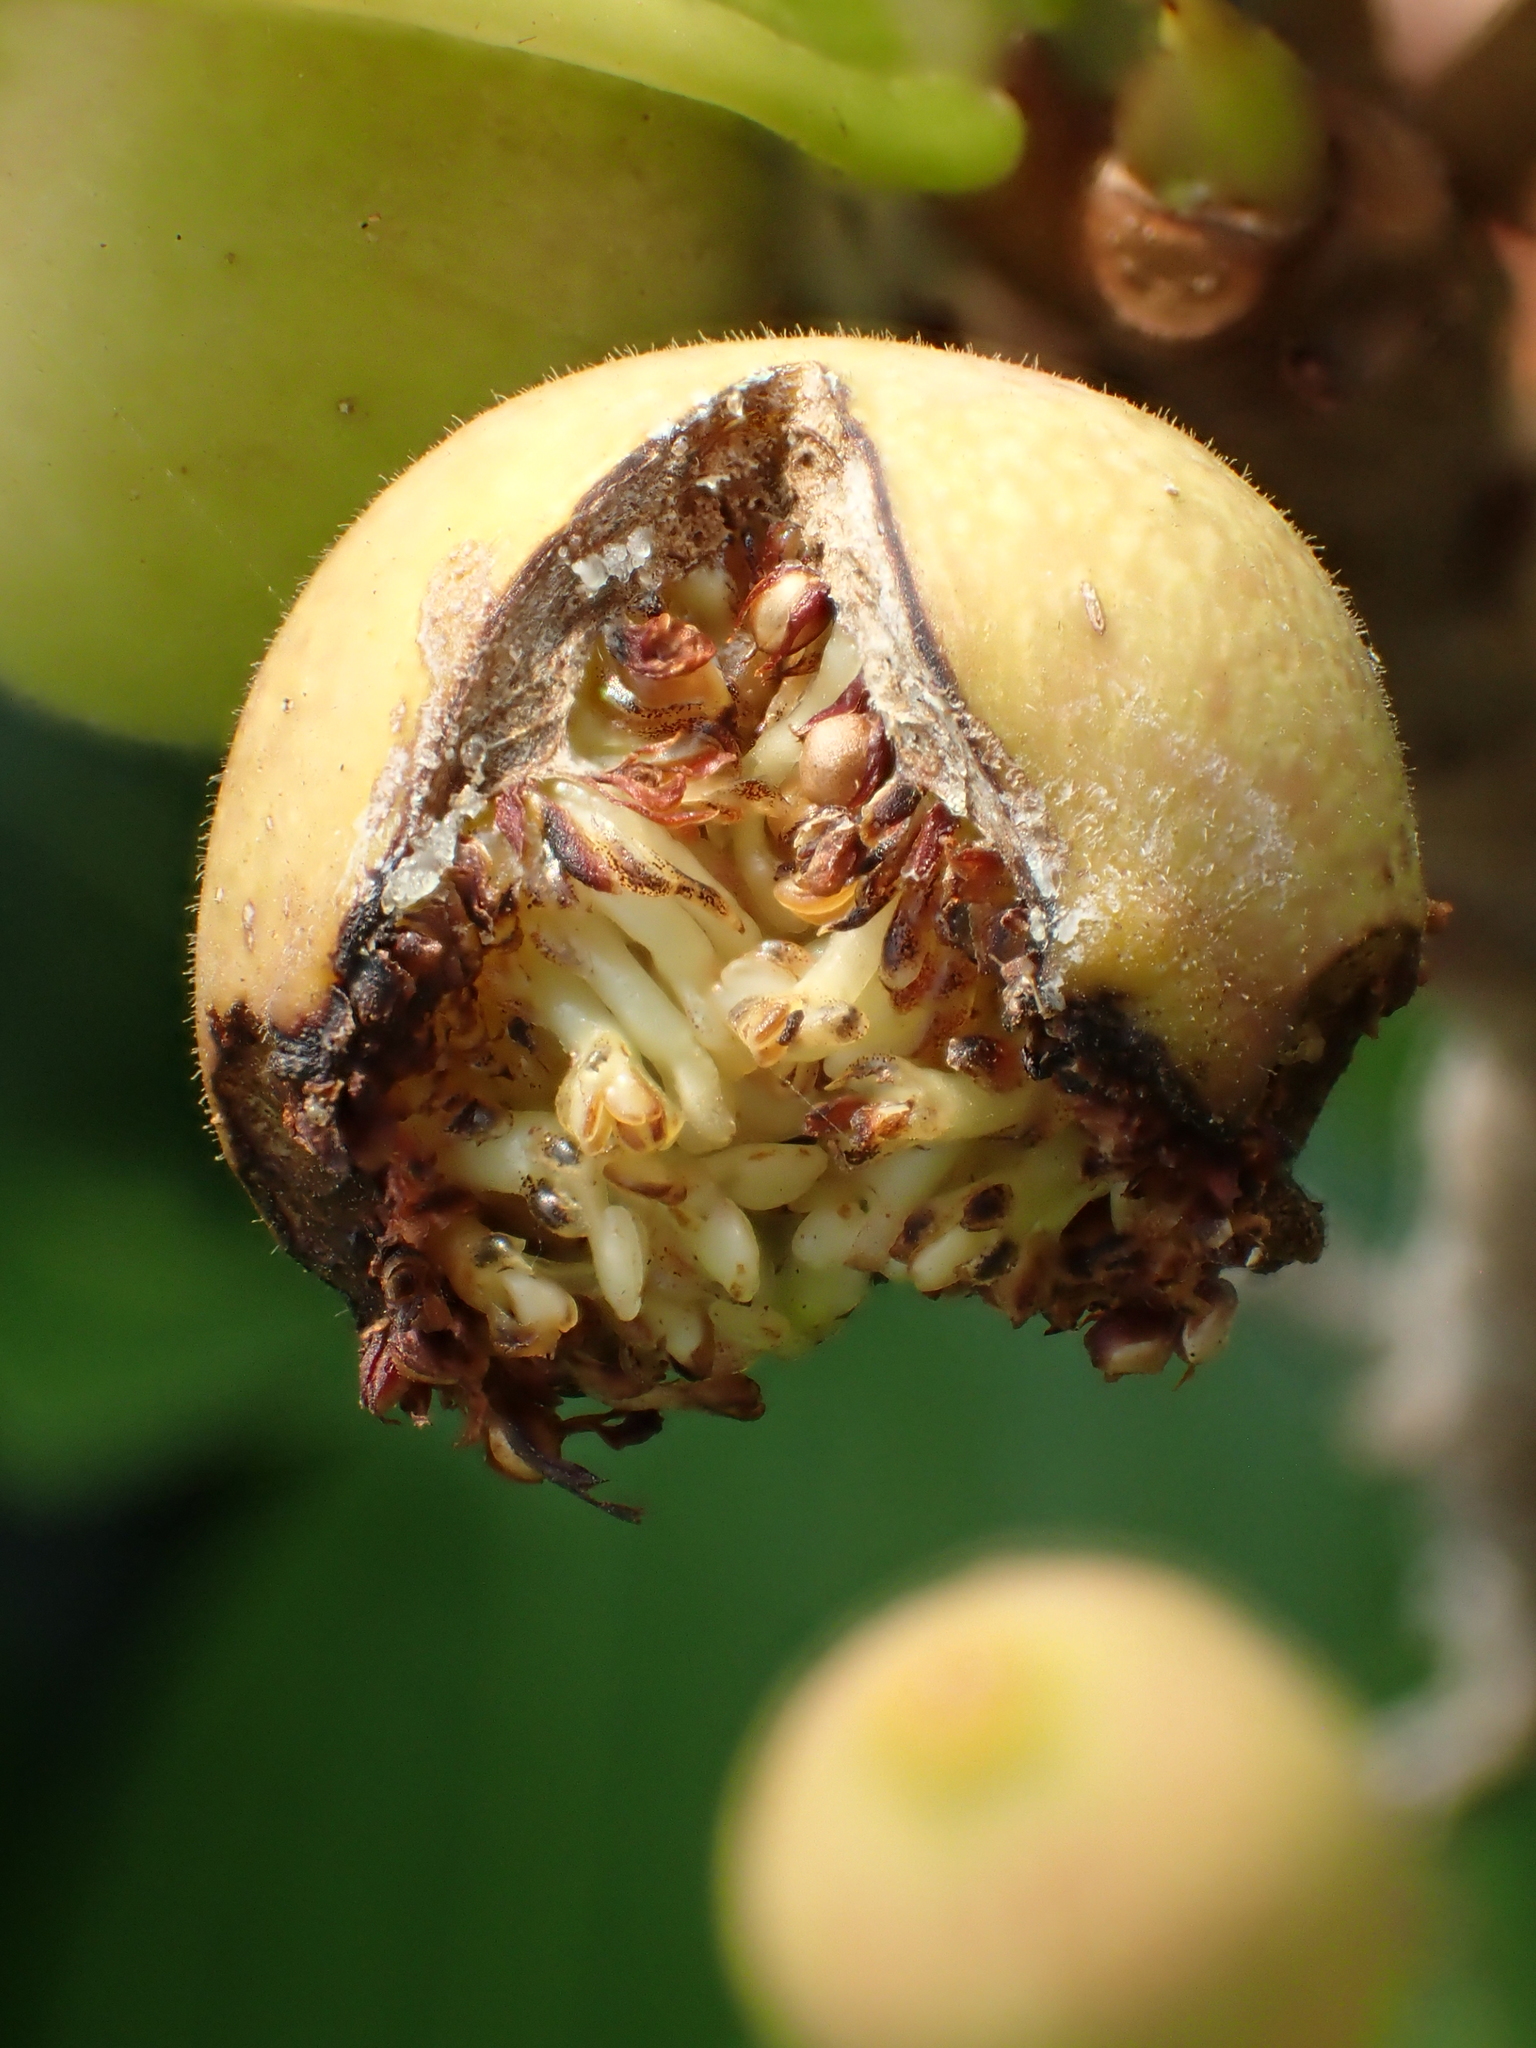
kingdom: Plantae
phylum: Tracheophyta
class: Magnoliopsida
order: Rosales
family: Moraceae
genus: Ficus
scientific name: Ficus pedunculosa
